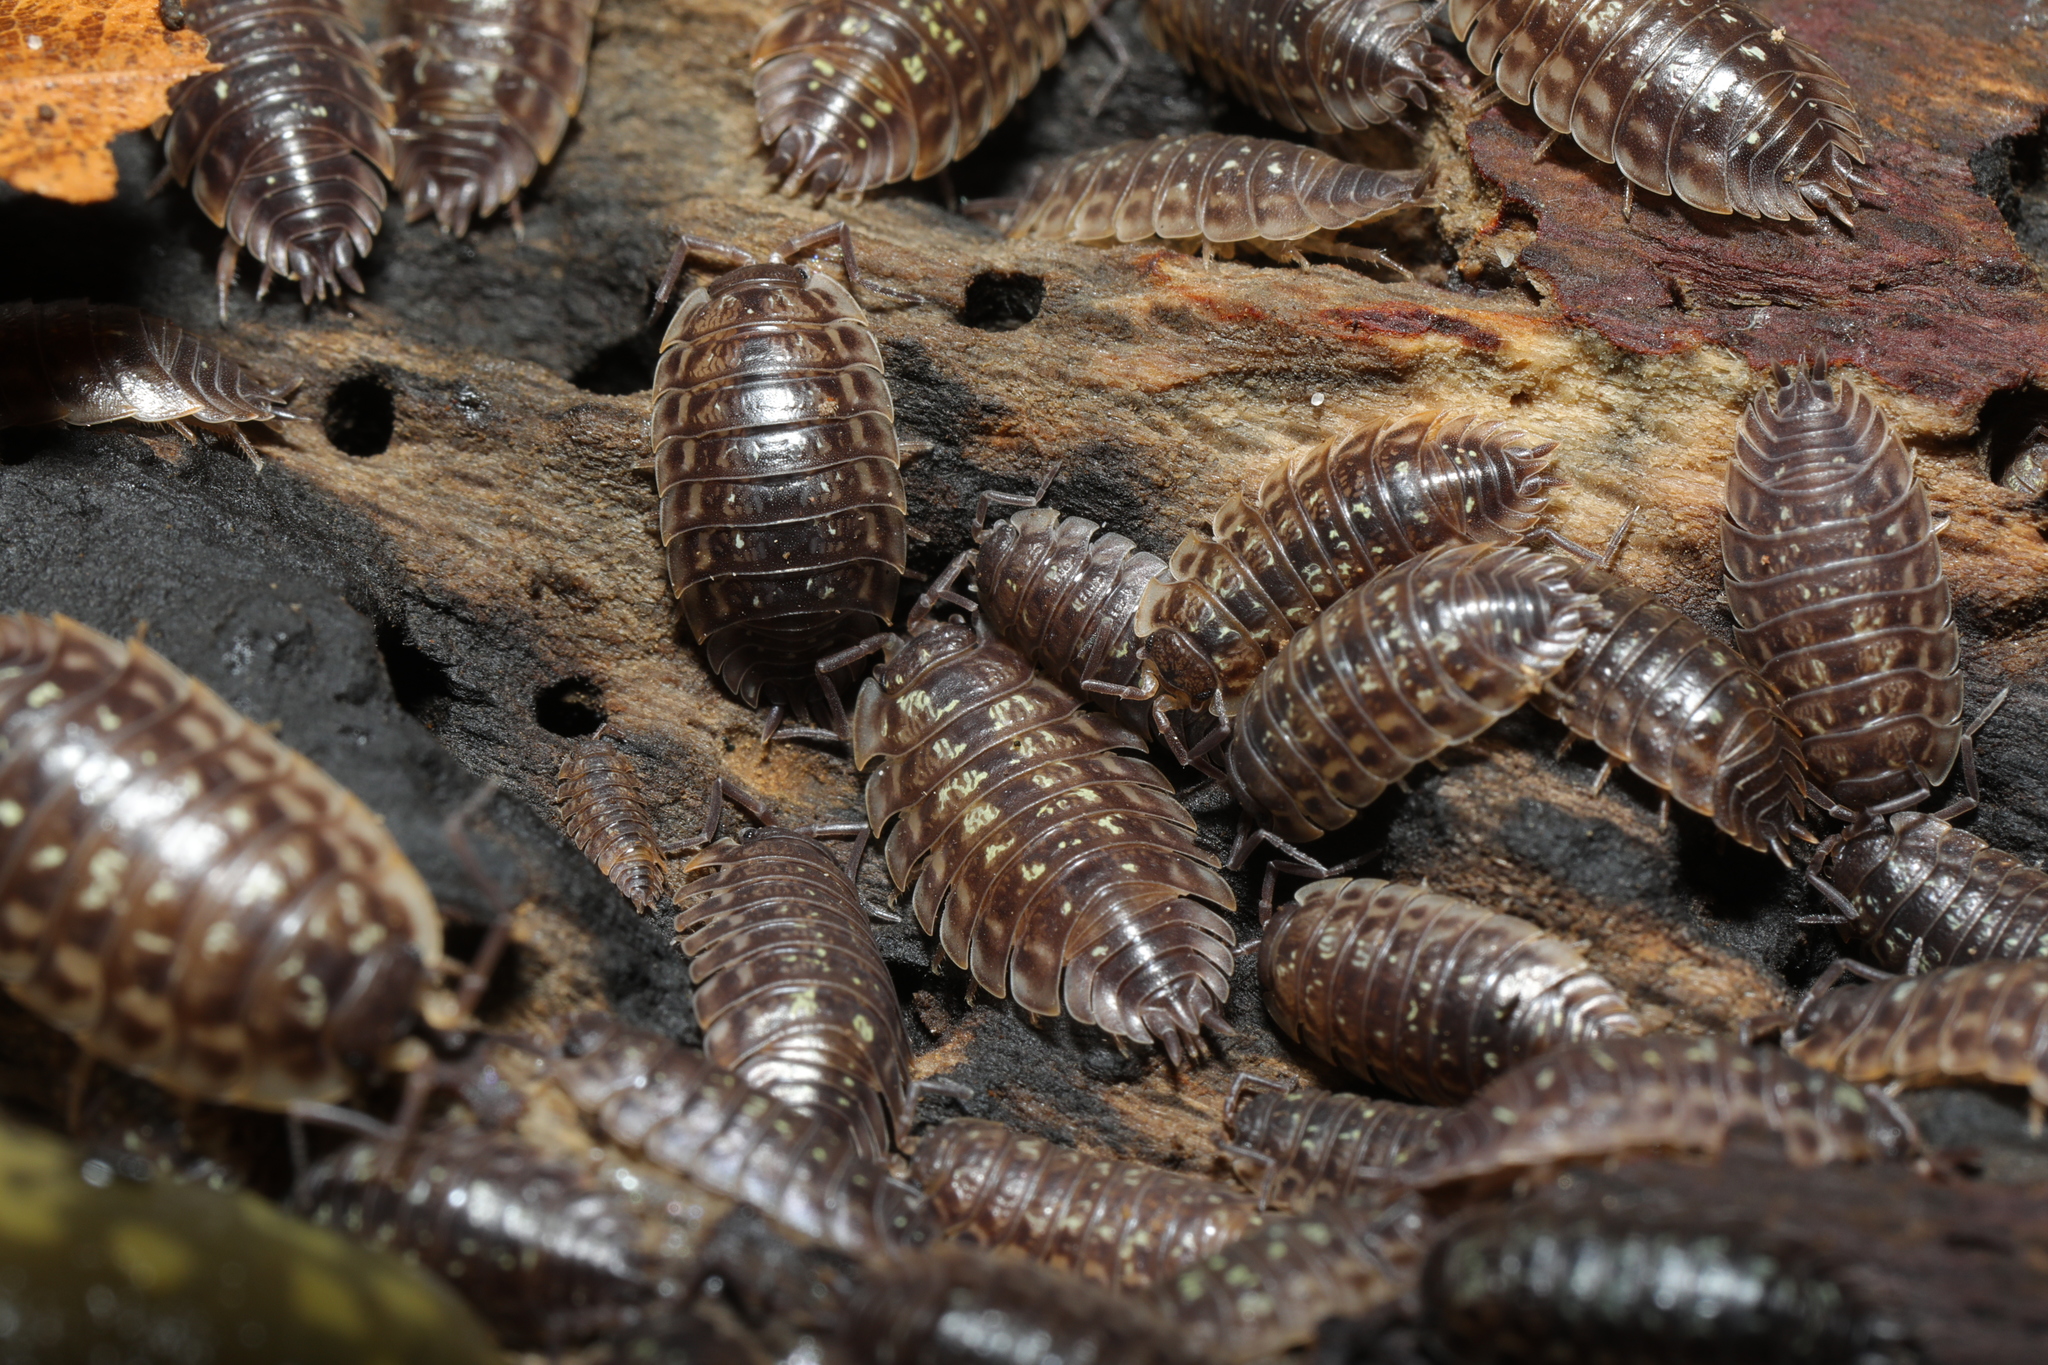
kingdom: Animalia
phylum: Arthropoda
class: Malacostraca
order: Isopoda
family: Oniscidae
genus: Oniscus
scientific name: Oniscus asellus
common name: Common shiny woodlouse
